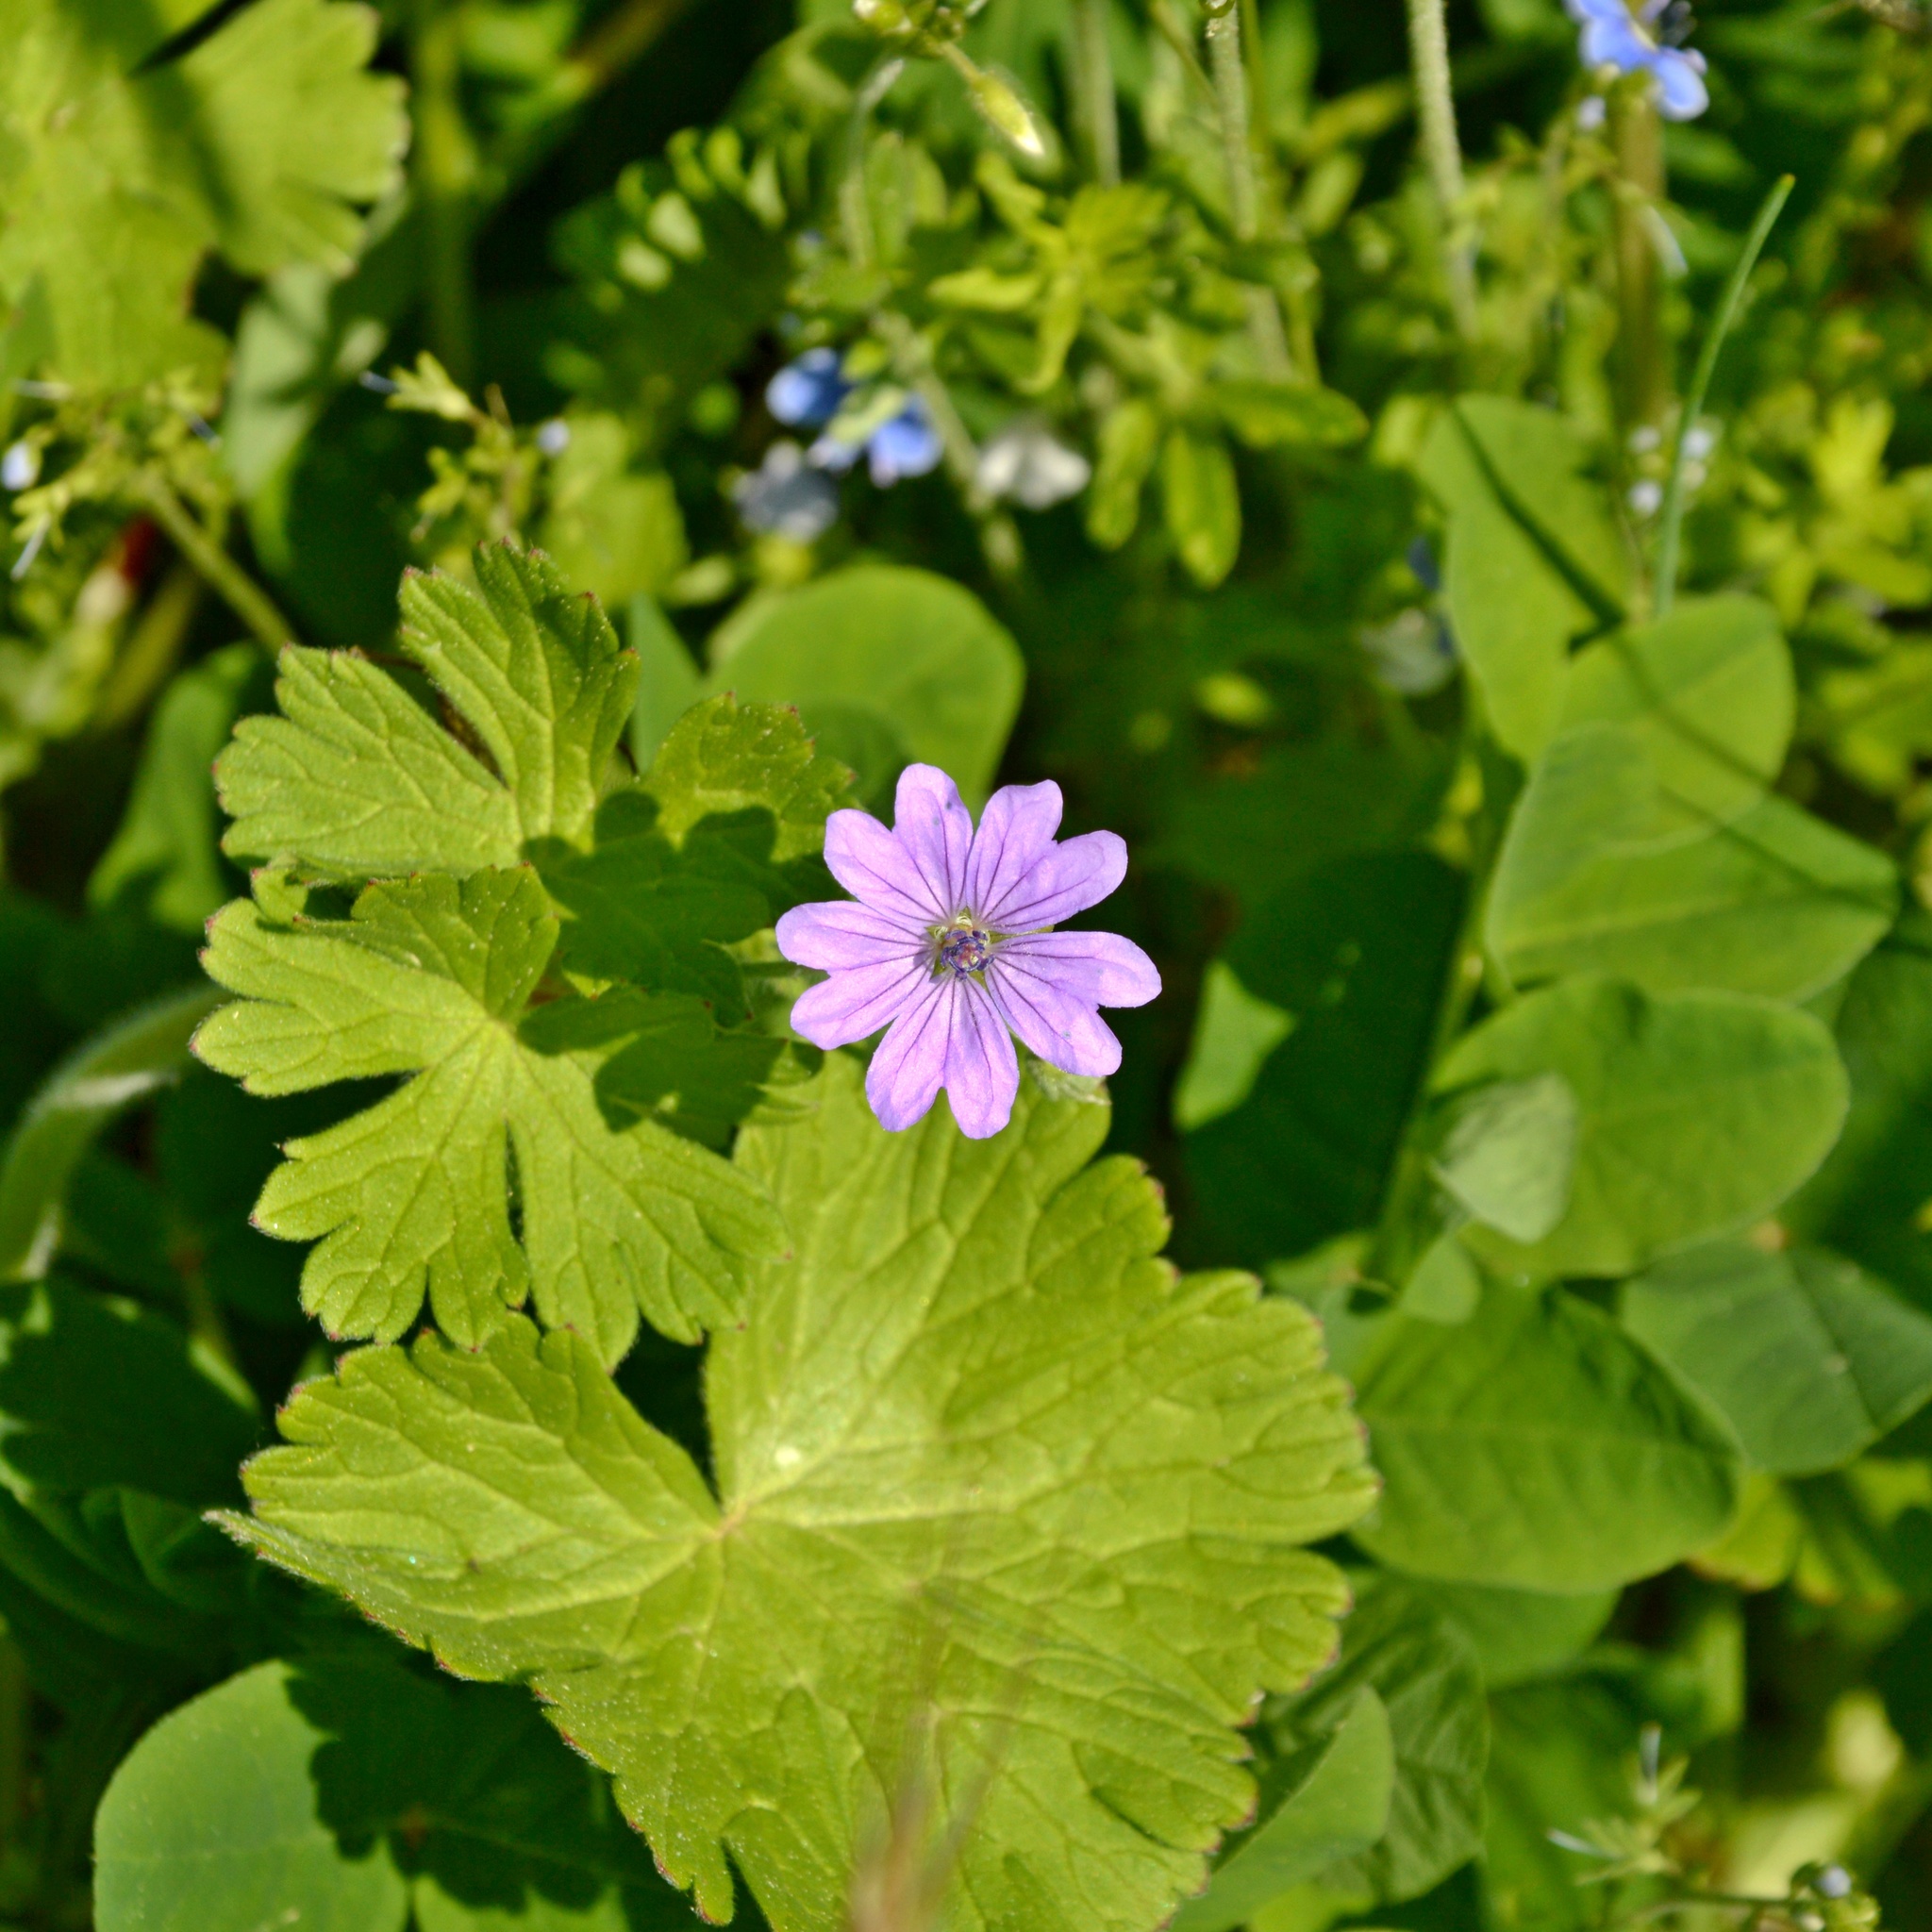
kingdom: Plantae
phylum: Tracheophyta
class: Magnoliopsida
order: Geraniales
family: Geraniaceae
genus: Geranium
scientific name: Geranium pyrenaicum
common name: Hedgerow crane's-bill
